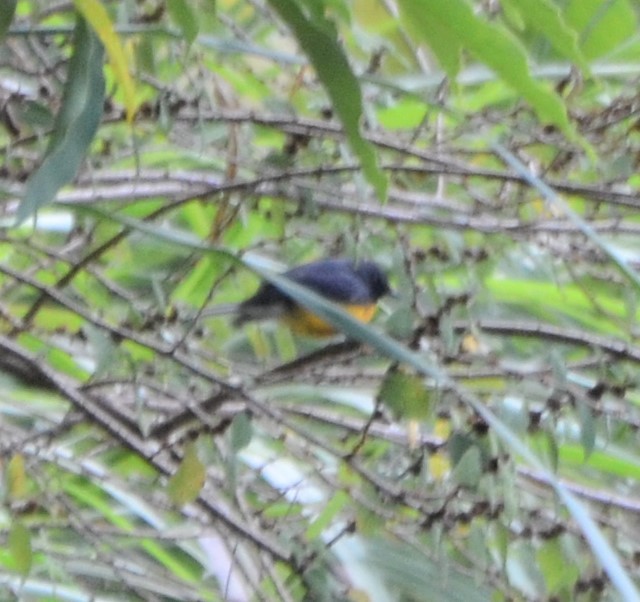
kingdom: Animalia
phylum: Chordata
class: Aves
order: Passeriformes
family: Parulidae
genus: Myioborus
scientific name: Myioborus miniatus
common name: Slate-throated redstart
